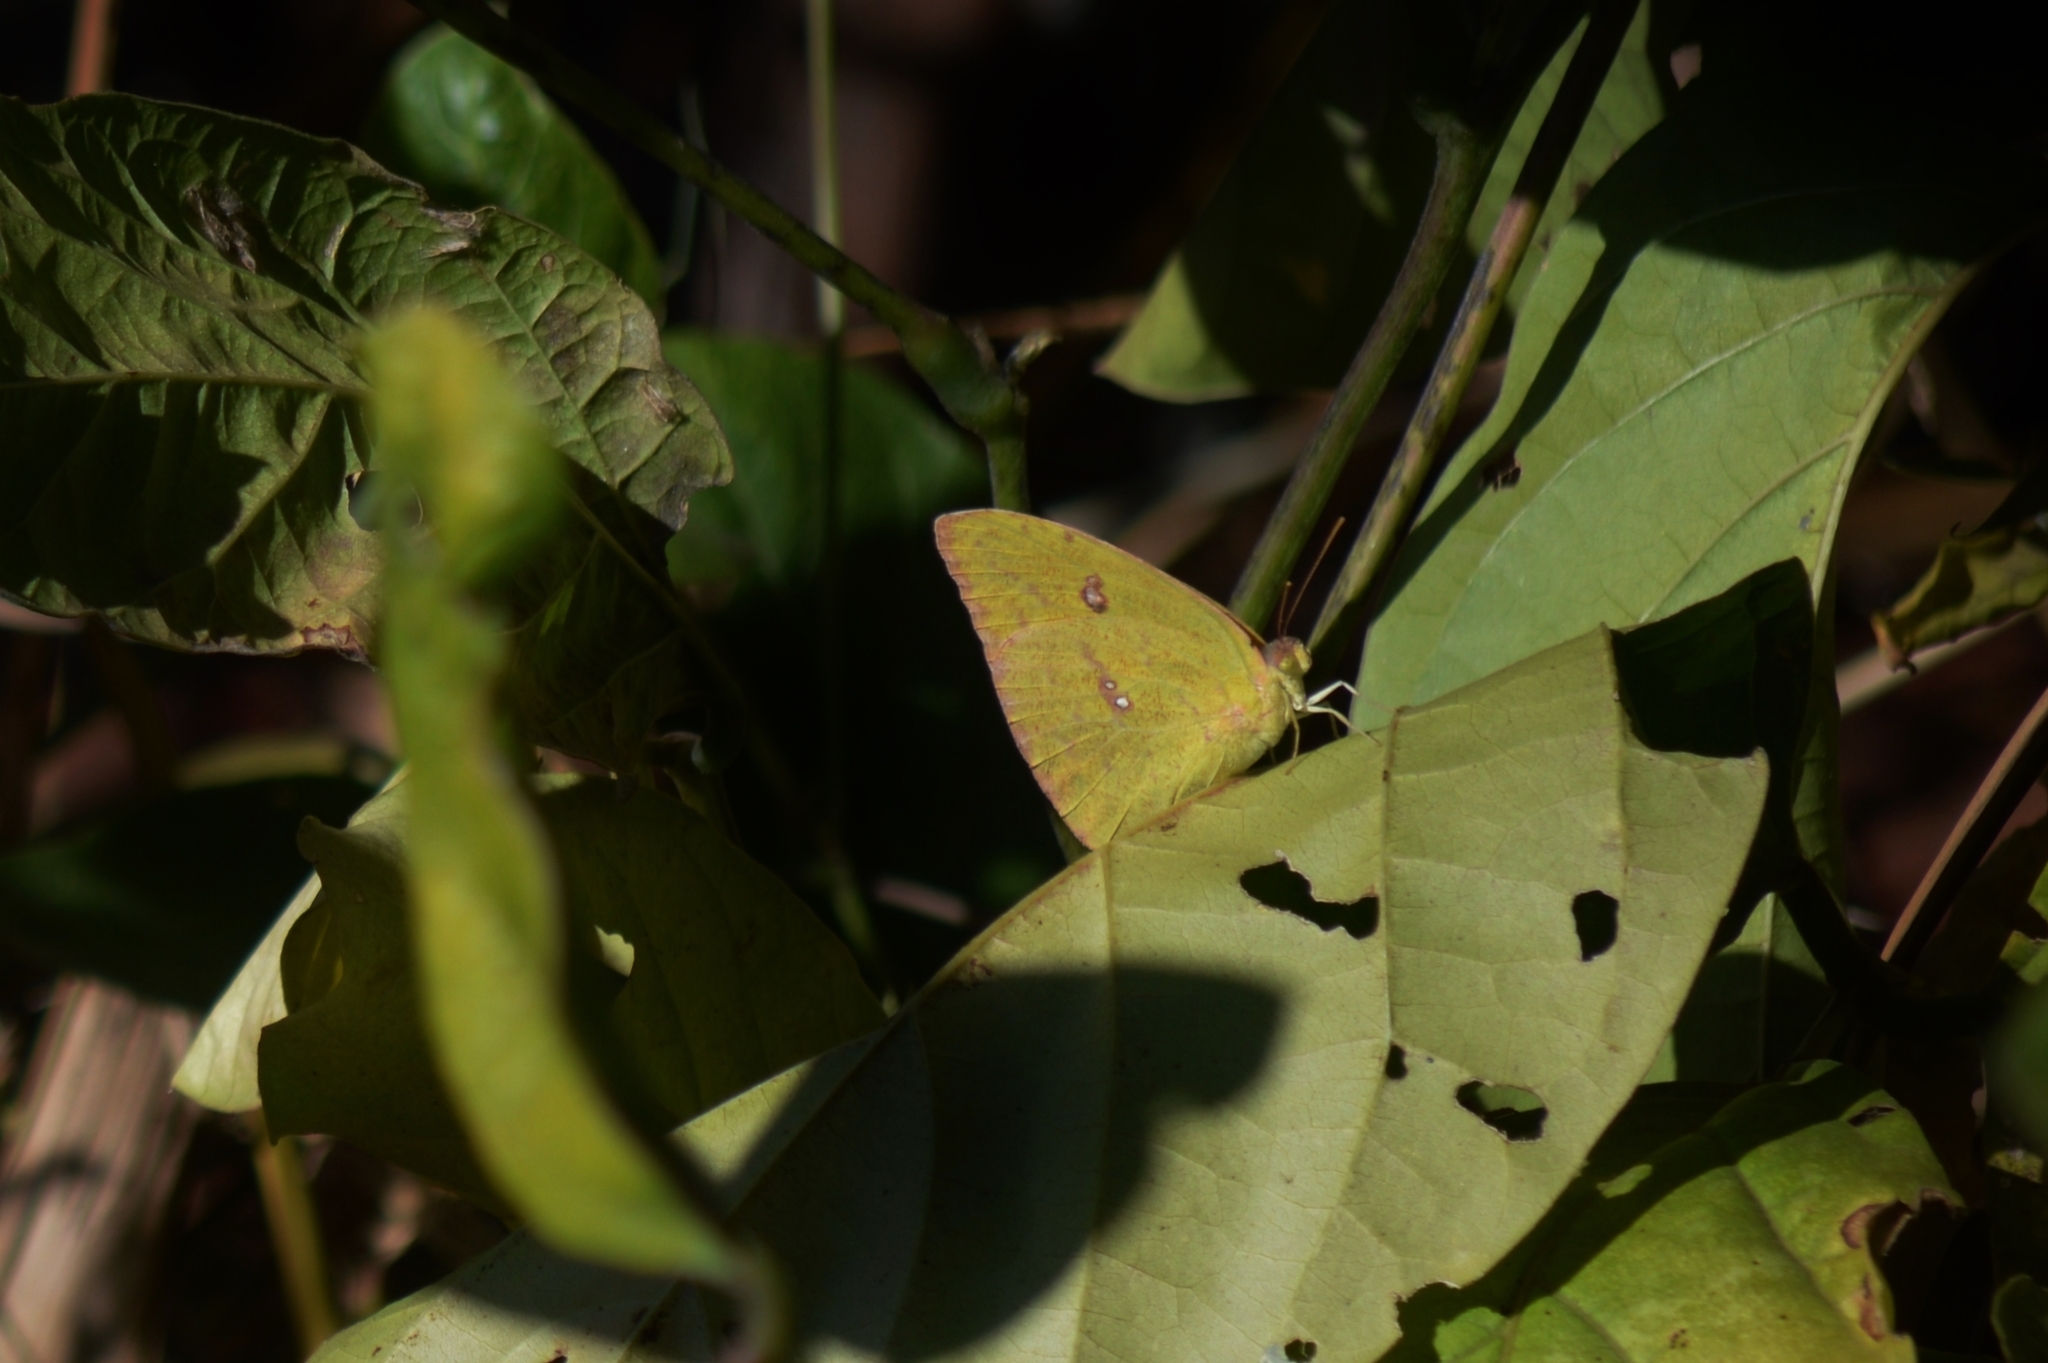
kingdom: Animalia
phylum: Arthropoda
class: Insecta
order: Lepidoptera
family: Pieridae
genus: Phoebis
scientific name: Phoebis marcellina
